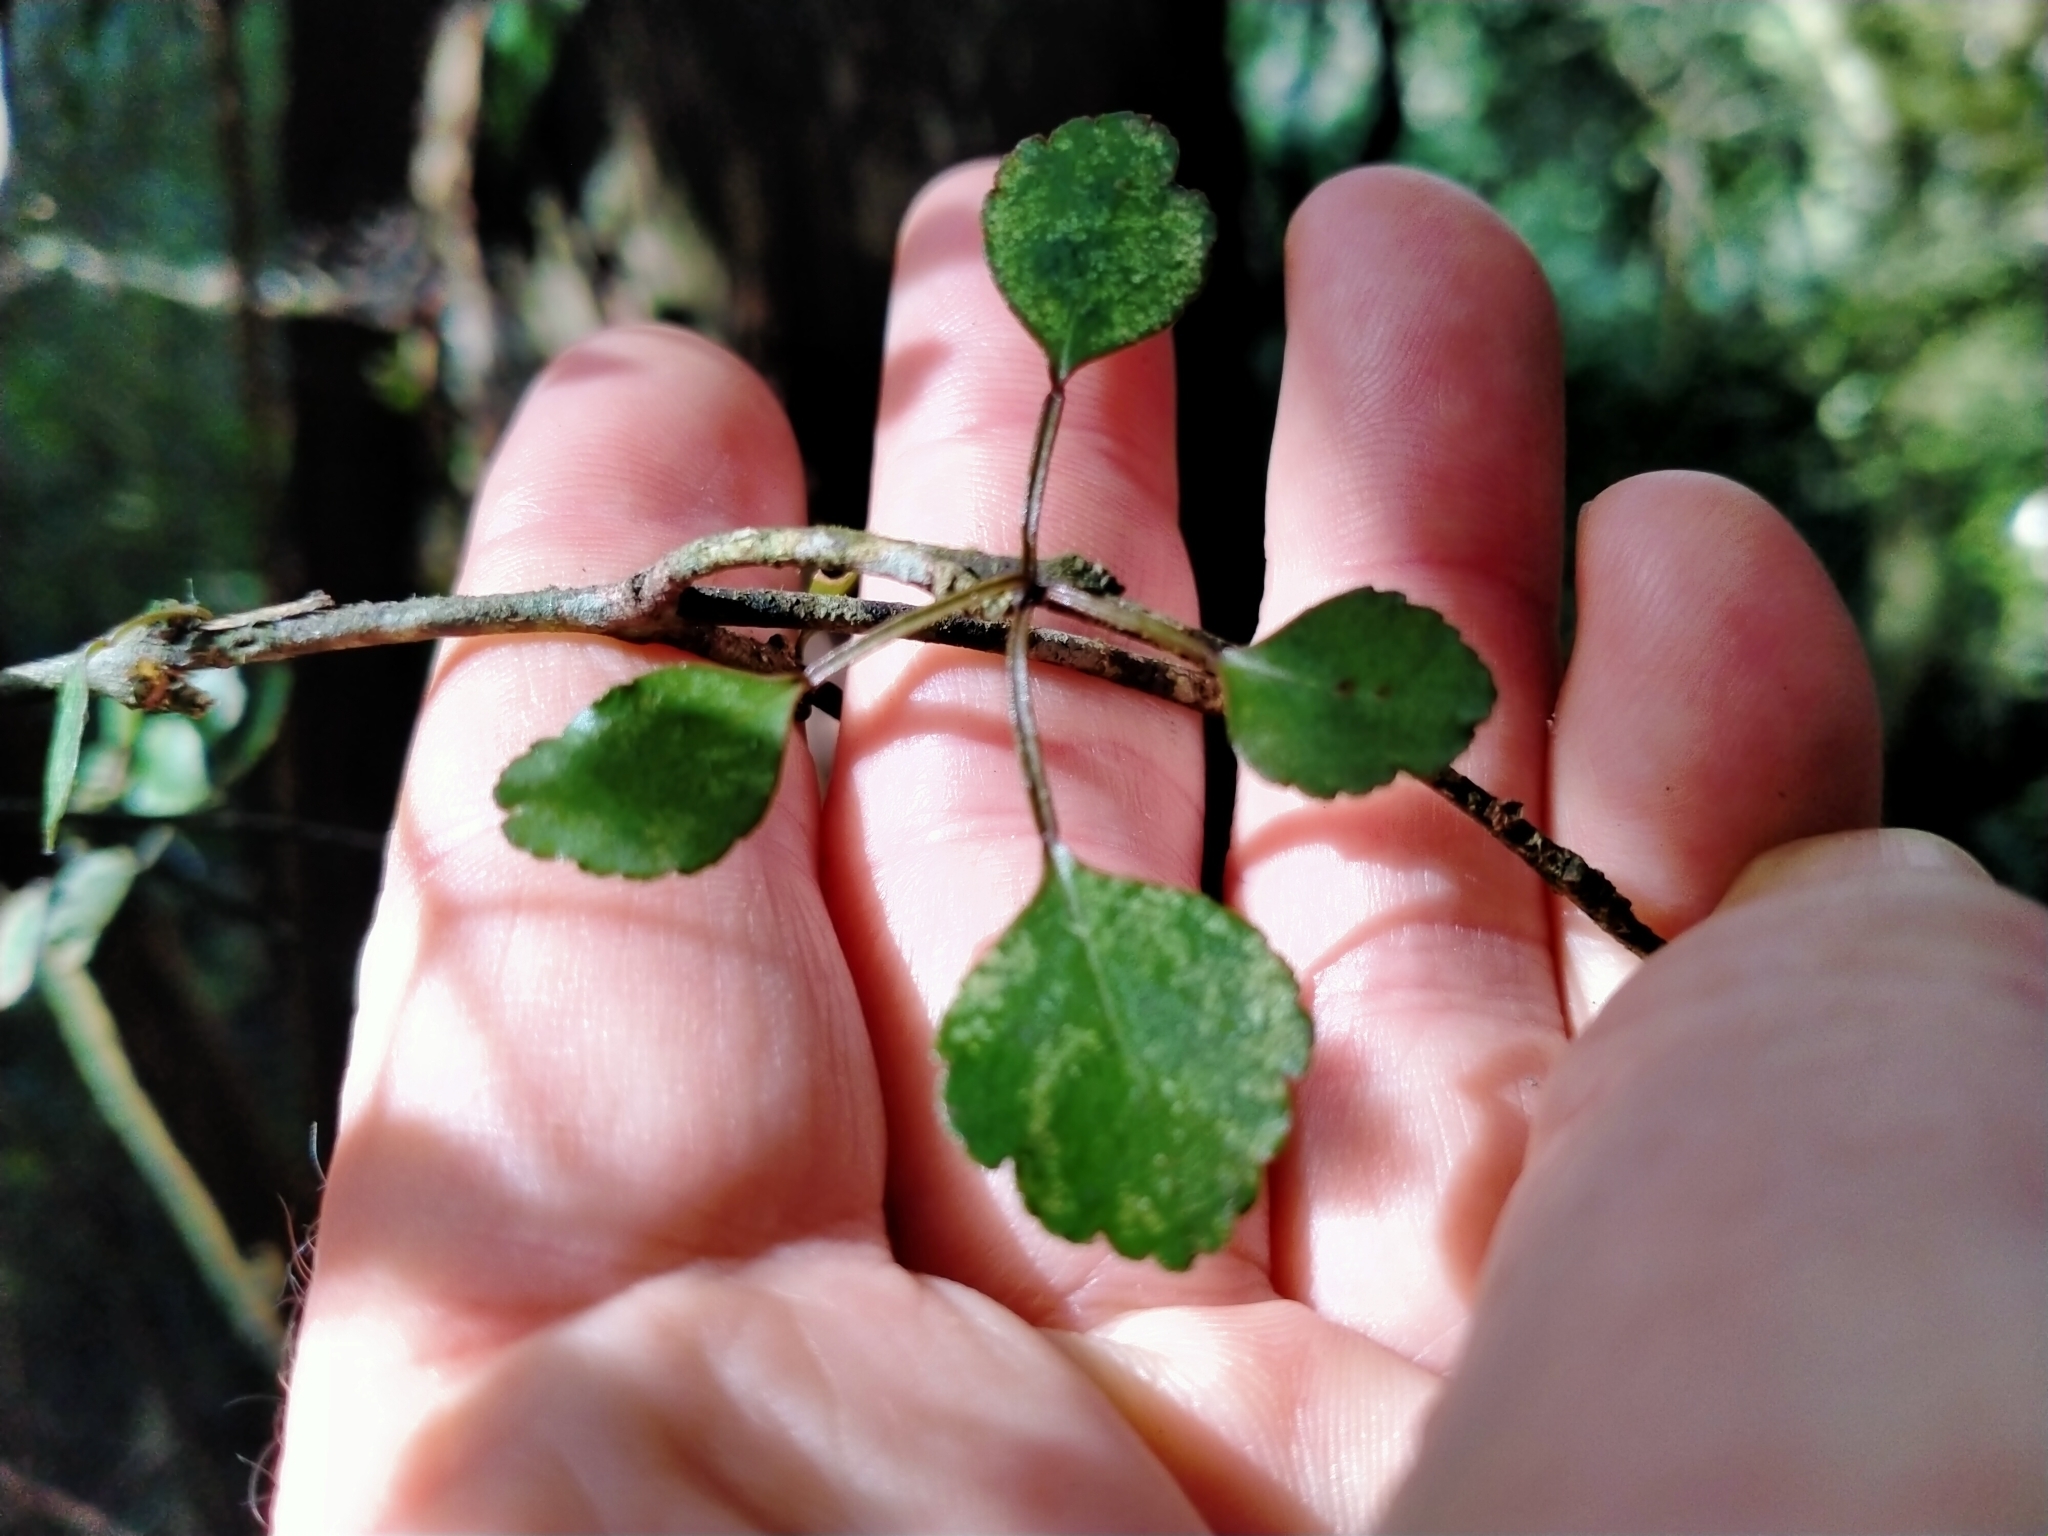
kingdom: Plantae
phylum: Tracheophyta
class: Magnoliopsida
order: Sapindales
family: Rutaceae
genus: Melicope
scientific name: Melicope simplex
